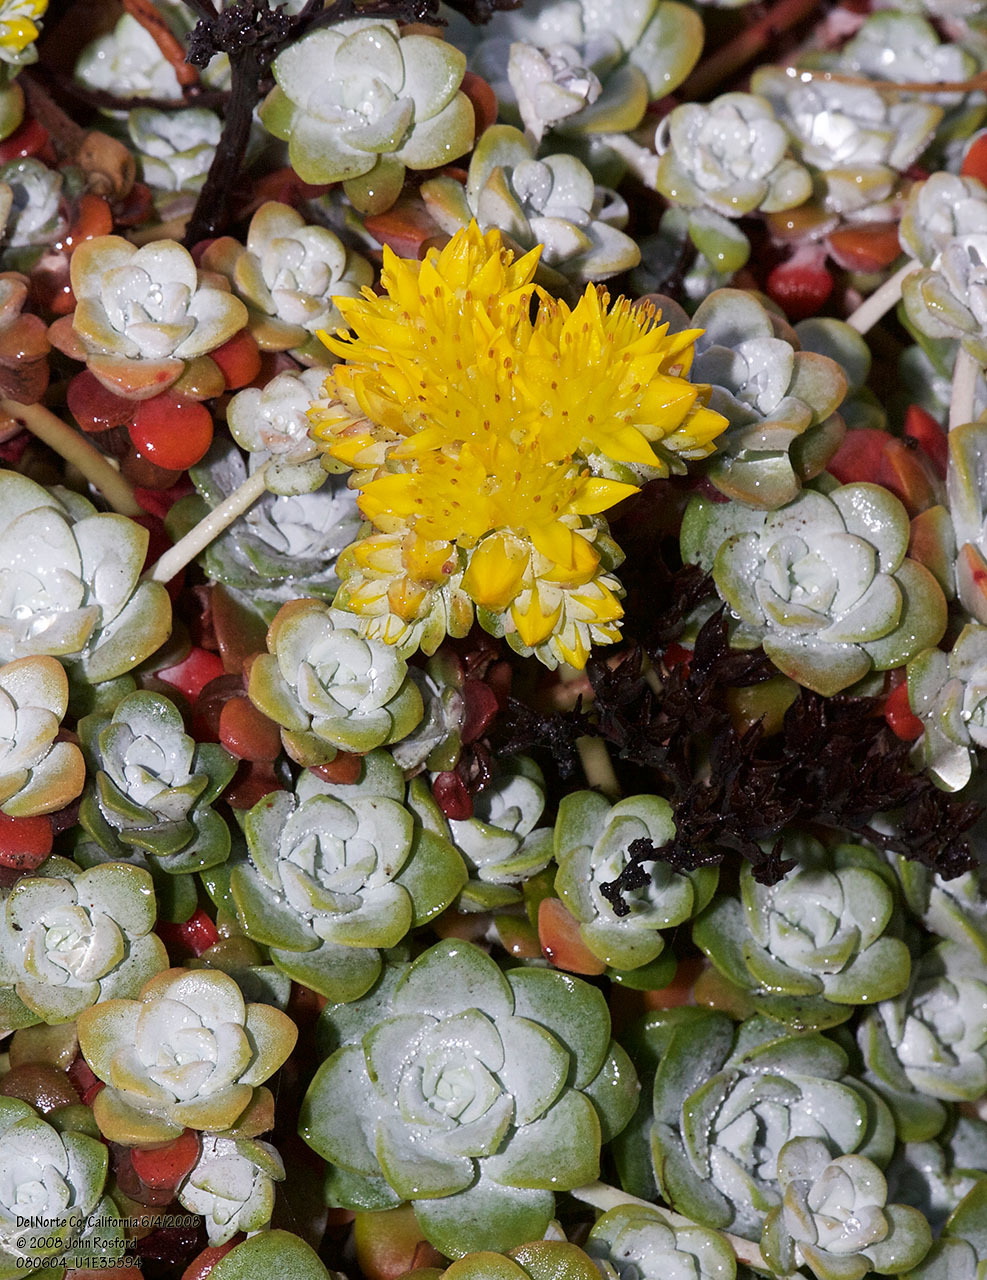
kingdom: Plantae
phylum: Tracheophyta
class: Magnoliopsida
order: Saxifragales
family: Crassulaceae
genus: Sedum
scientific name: Sedum spathulifolium
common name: Colorado stonecrop
